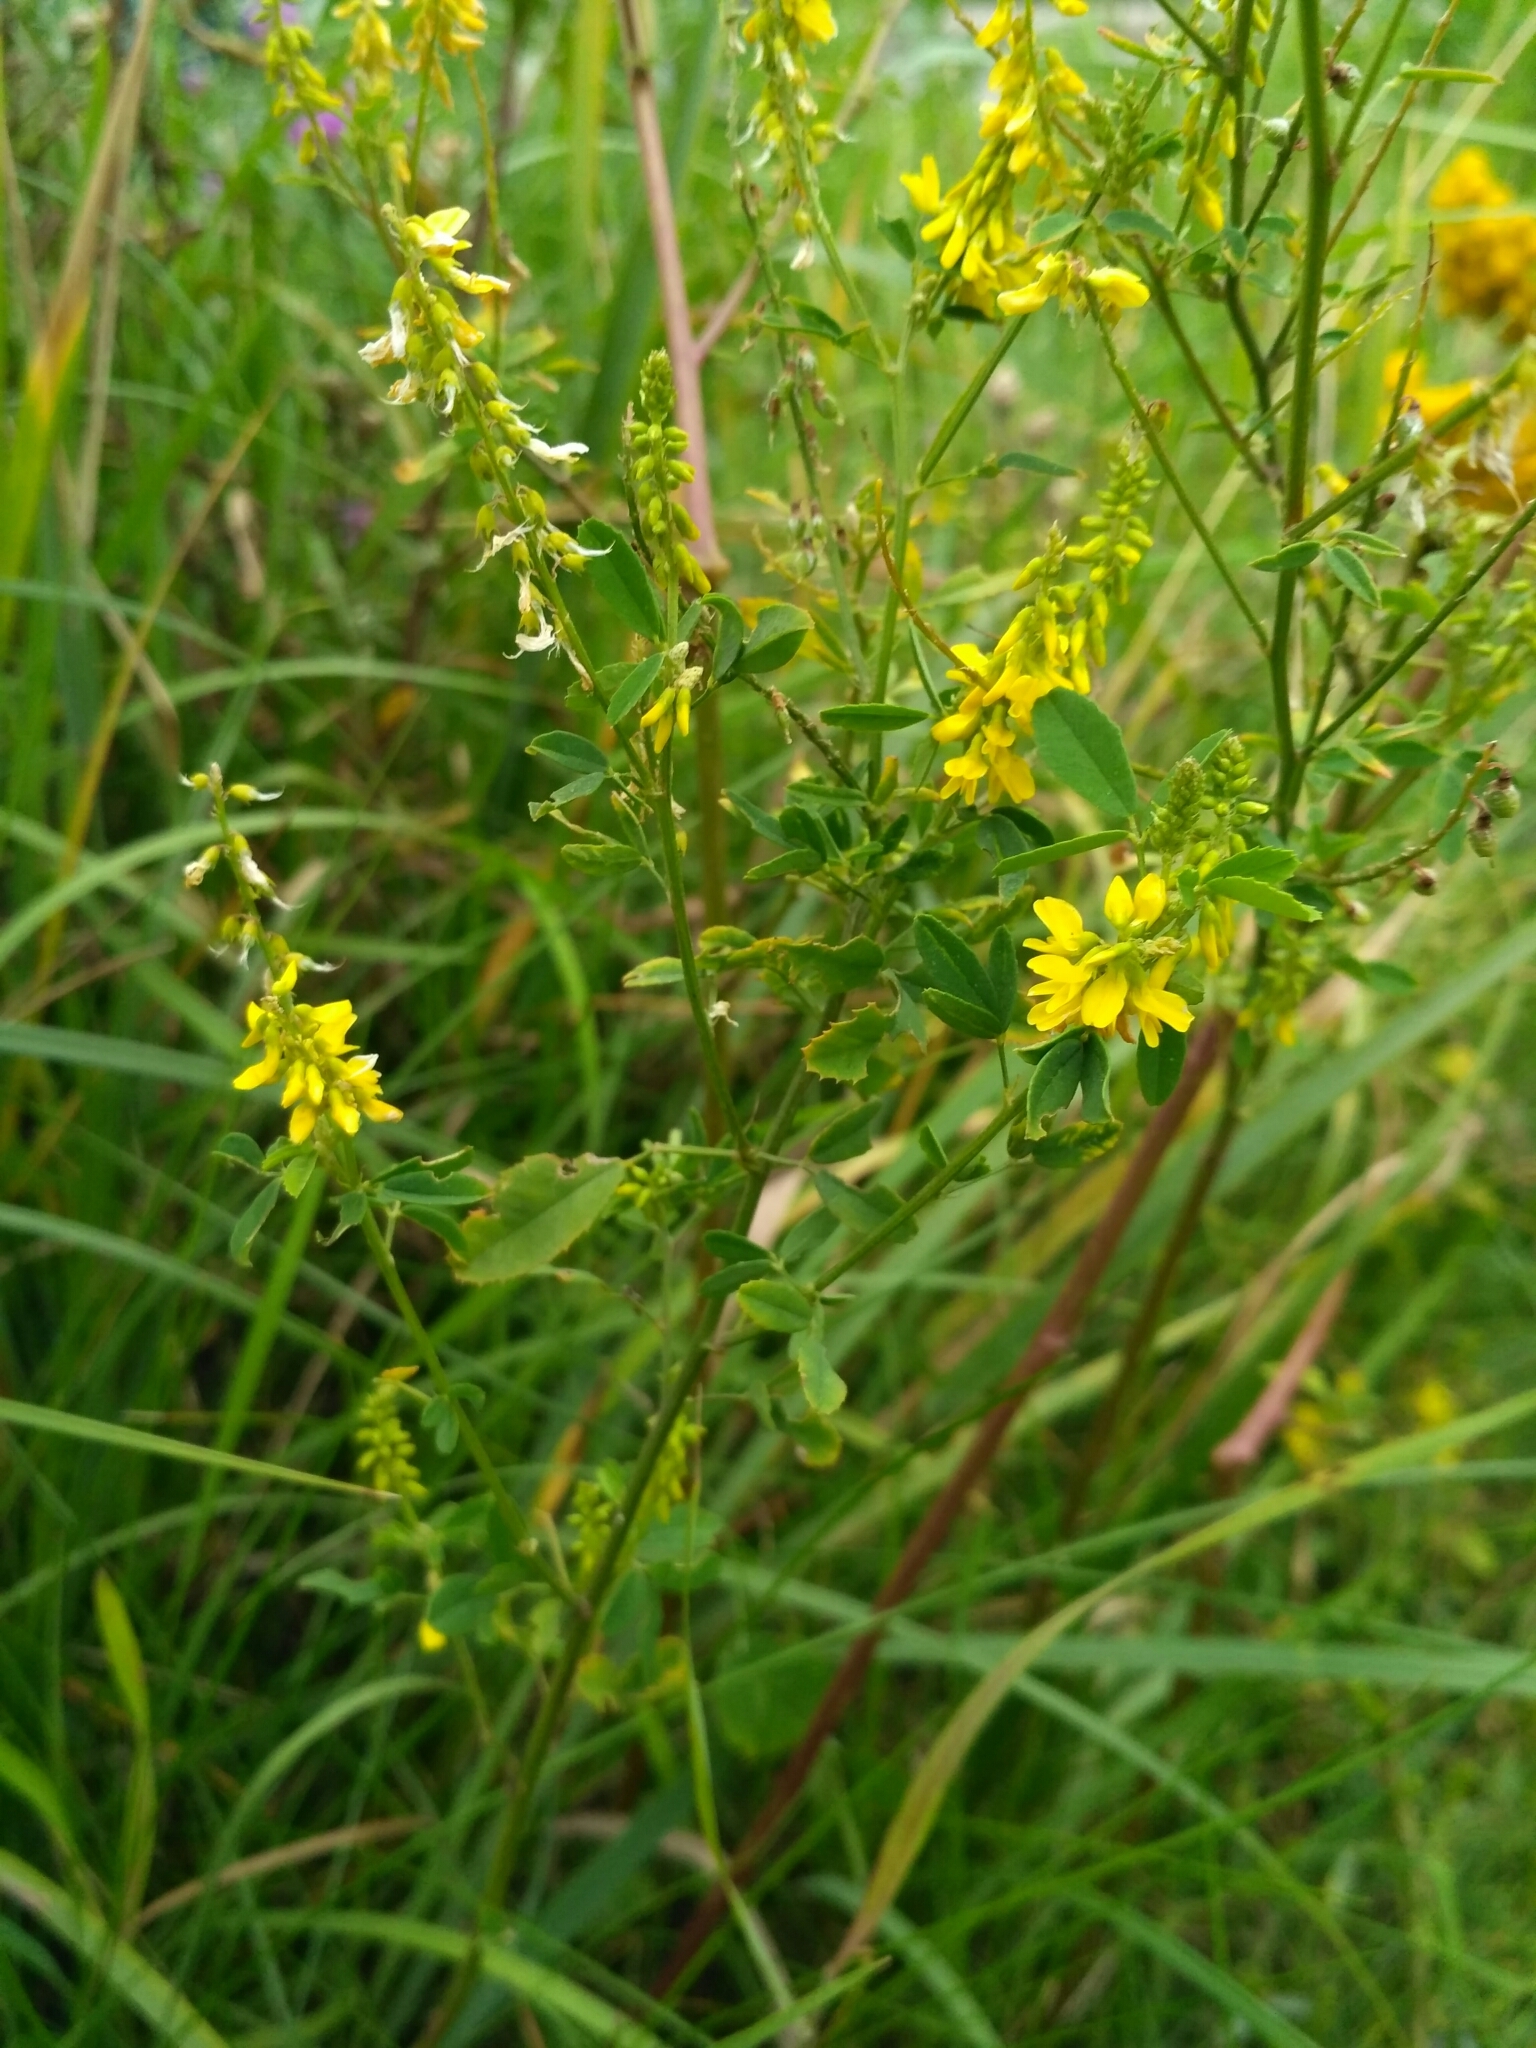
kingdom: Plantae
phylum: Tracheophyta
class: Magnoliopsida
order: Fabales
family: Fabaceae
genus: Melilotus
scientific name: Melilotus officinalis
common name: Sweetclover
